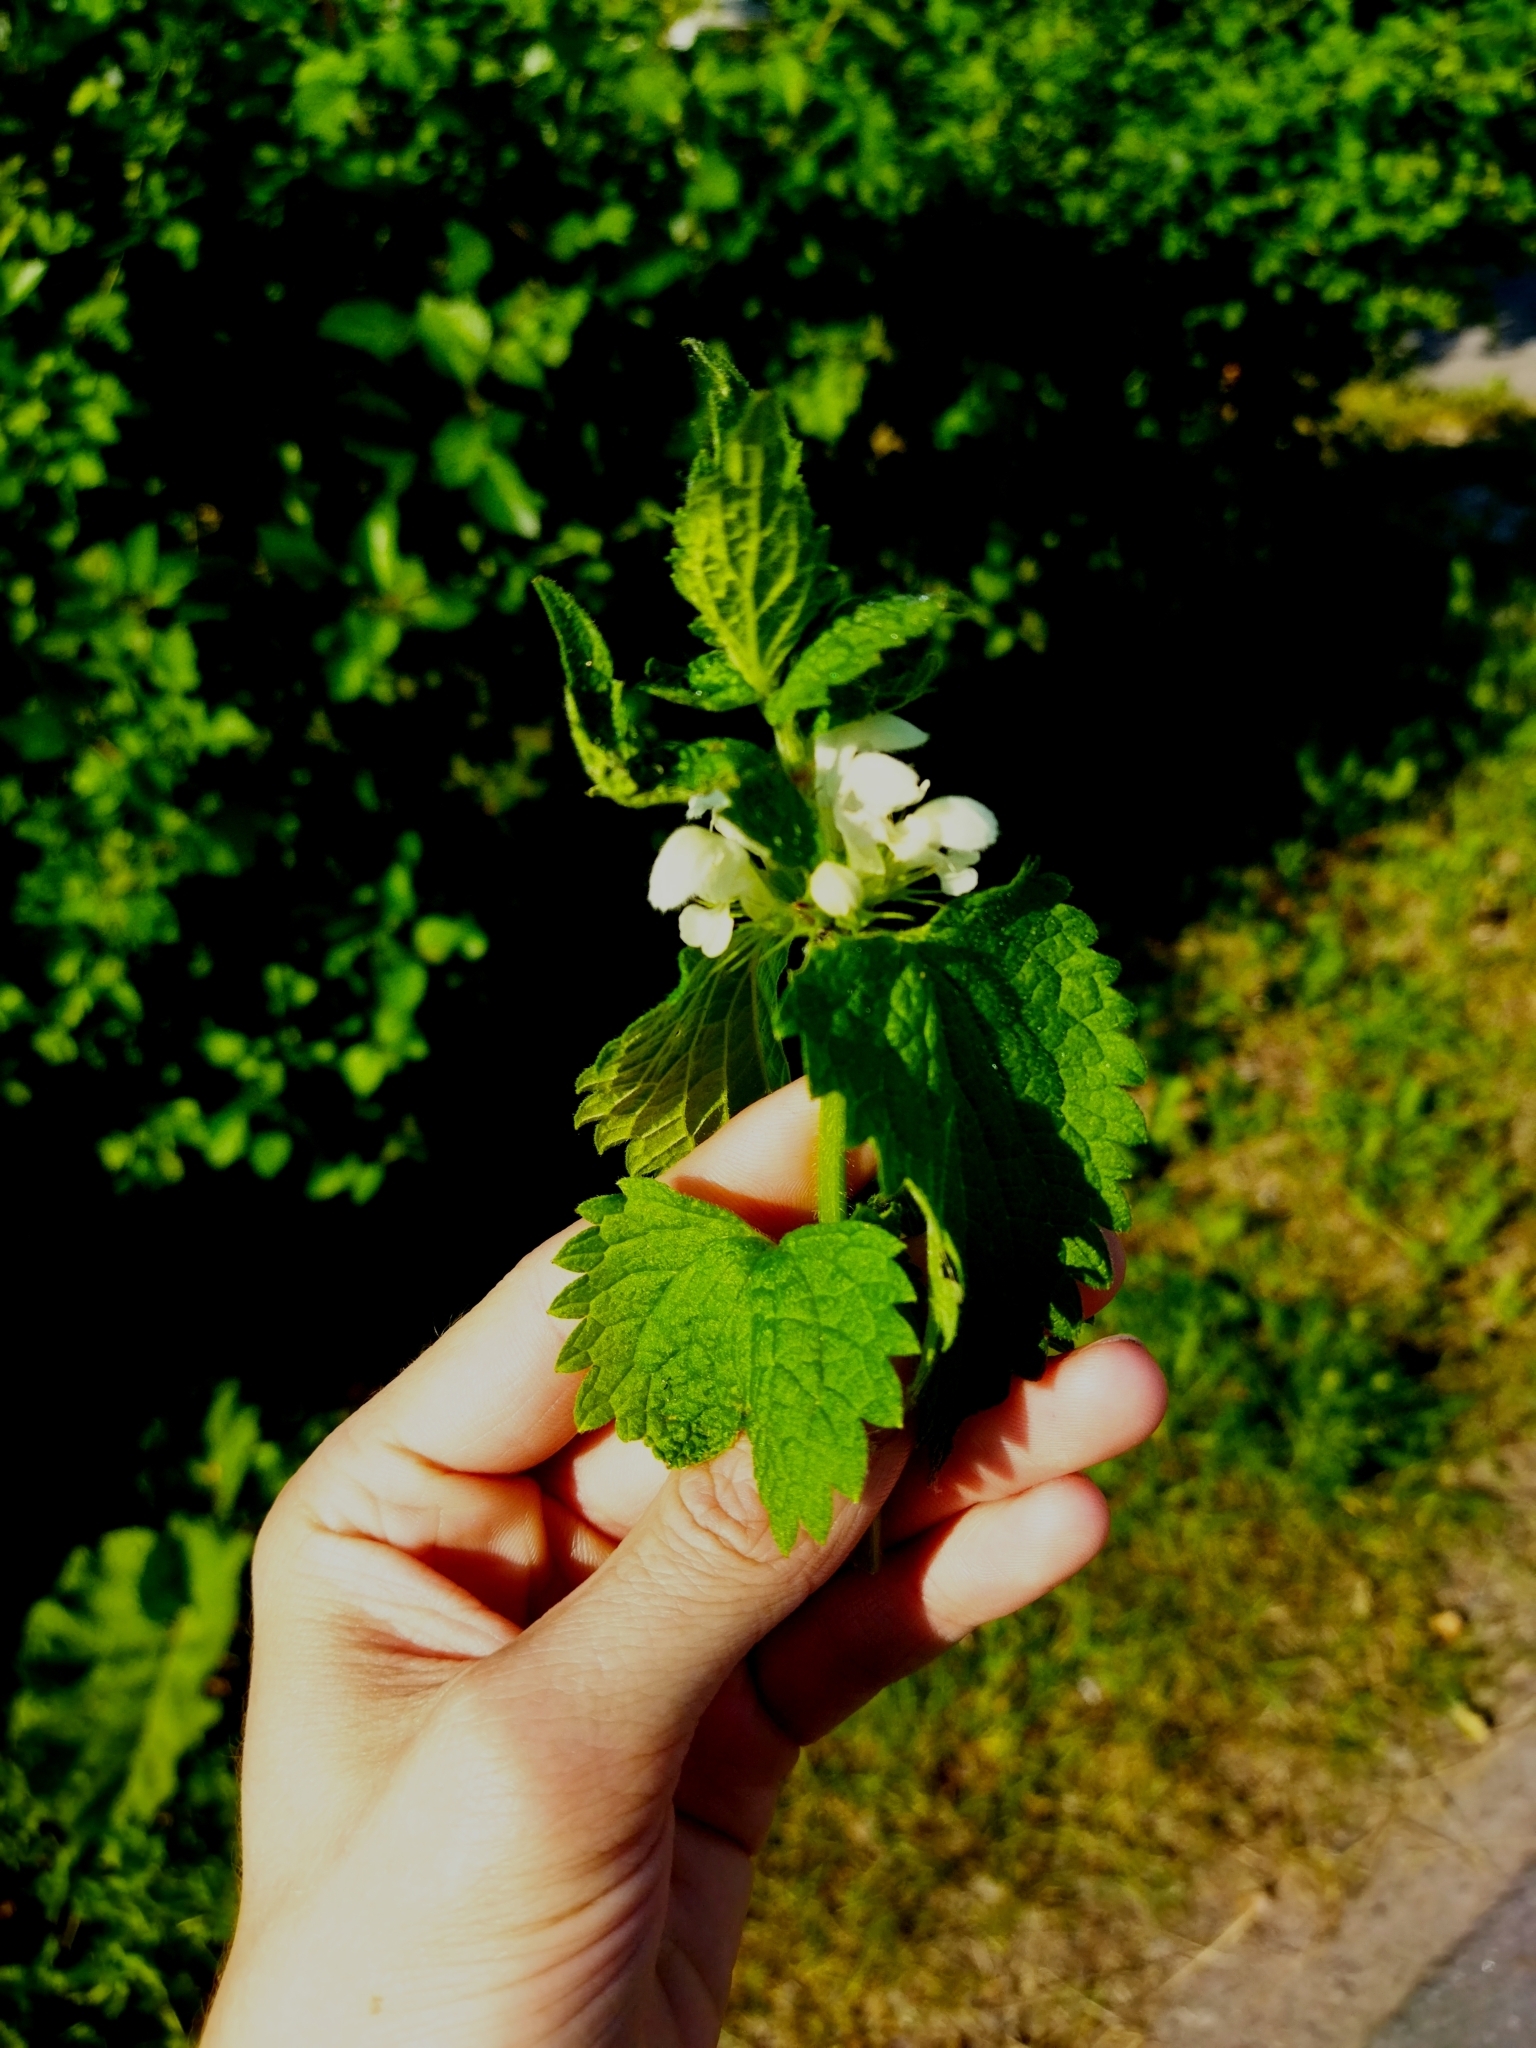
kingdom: Plantae
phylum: Tracheophyta
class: Magnoliopsida
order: Lamiales
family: Lamiaceae
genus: Lamium
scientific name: Lamium album
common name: White dead-nettle
